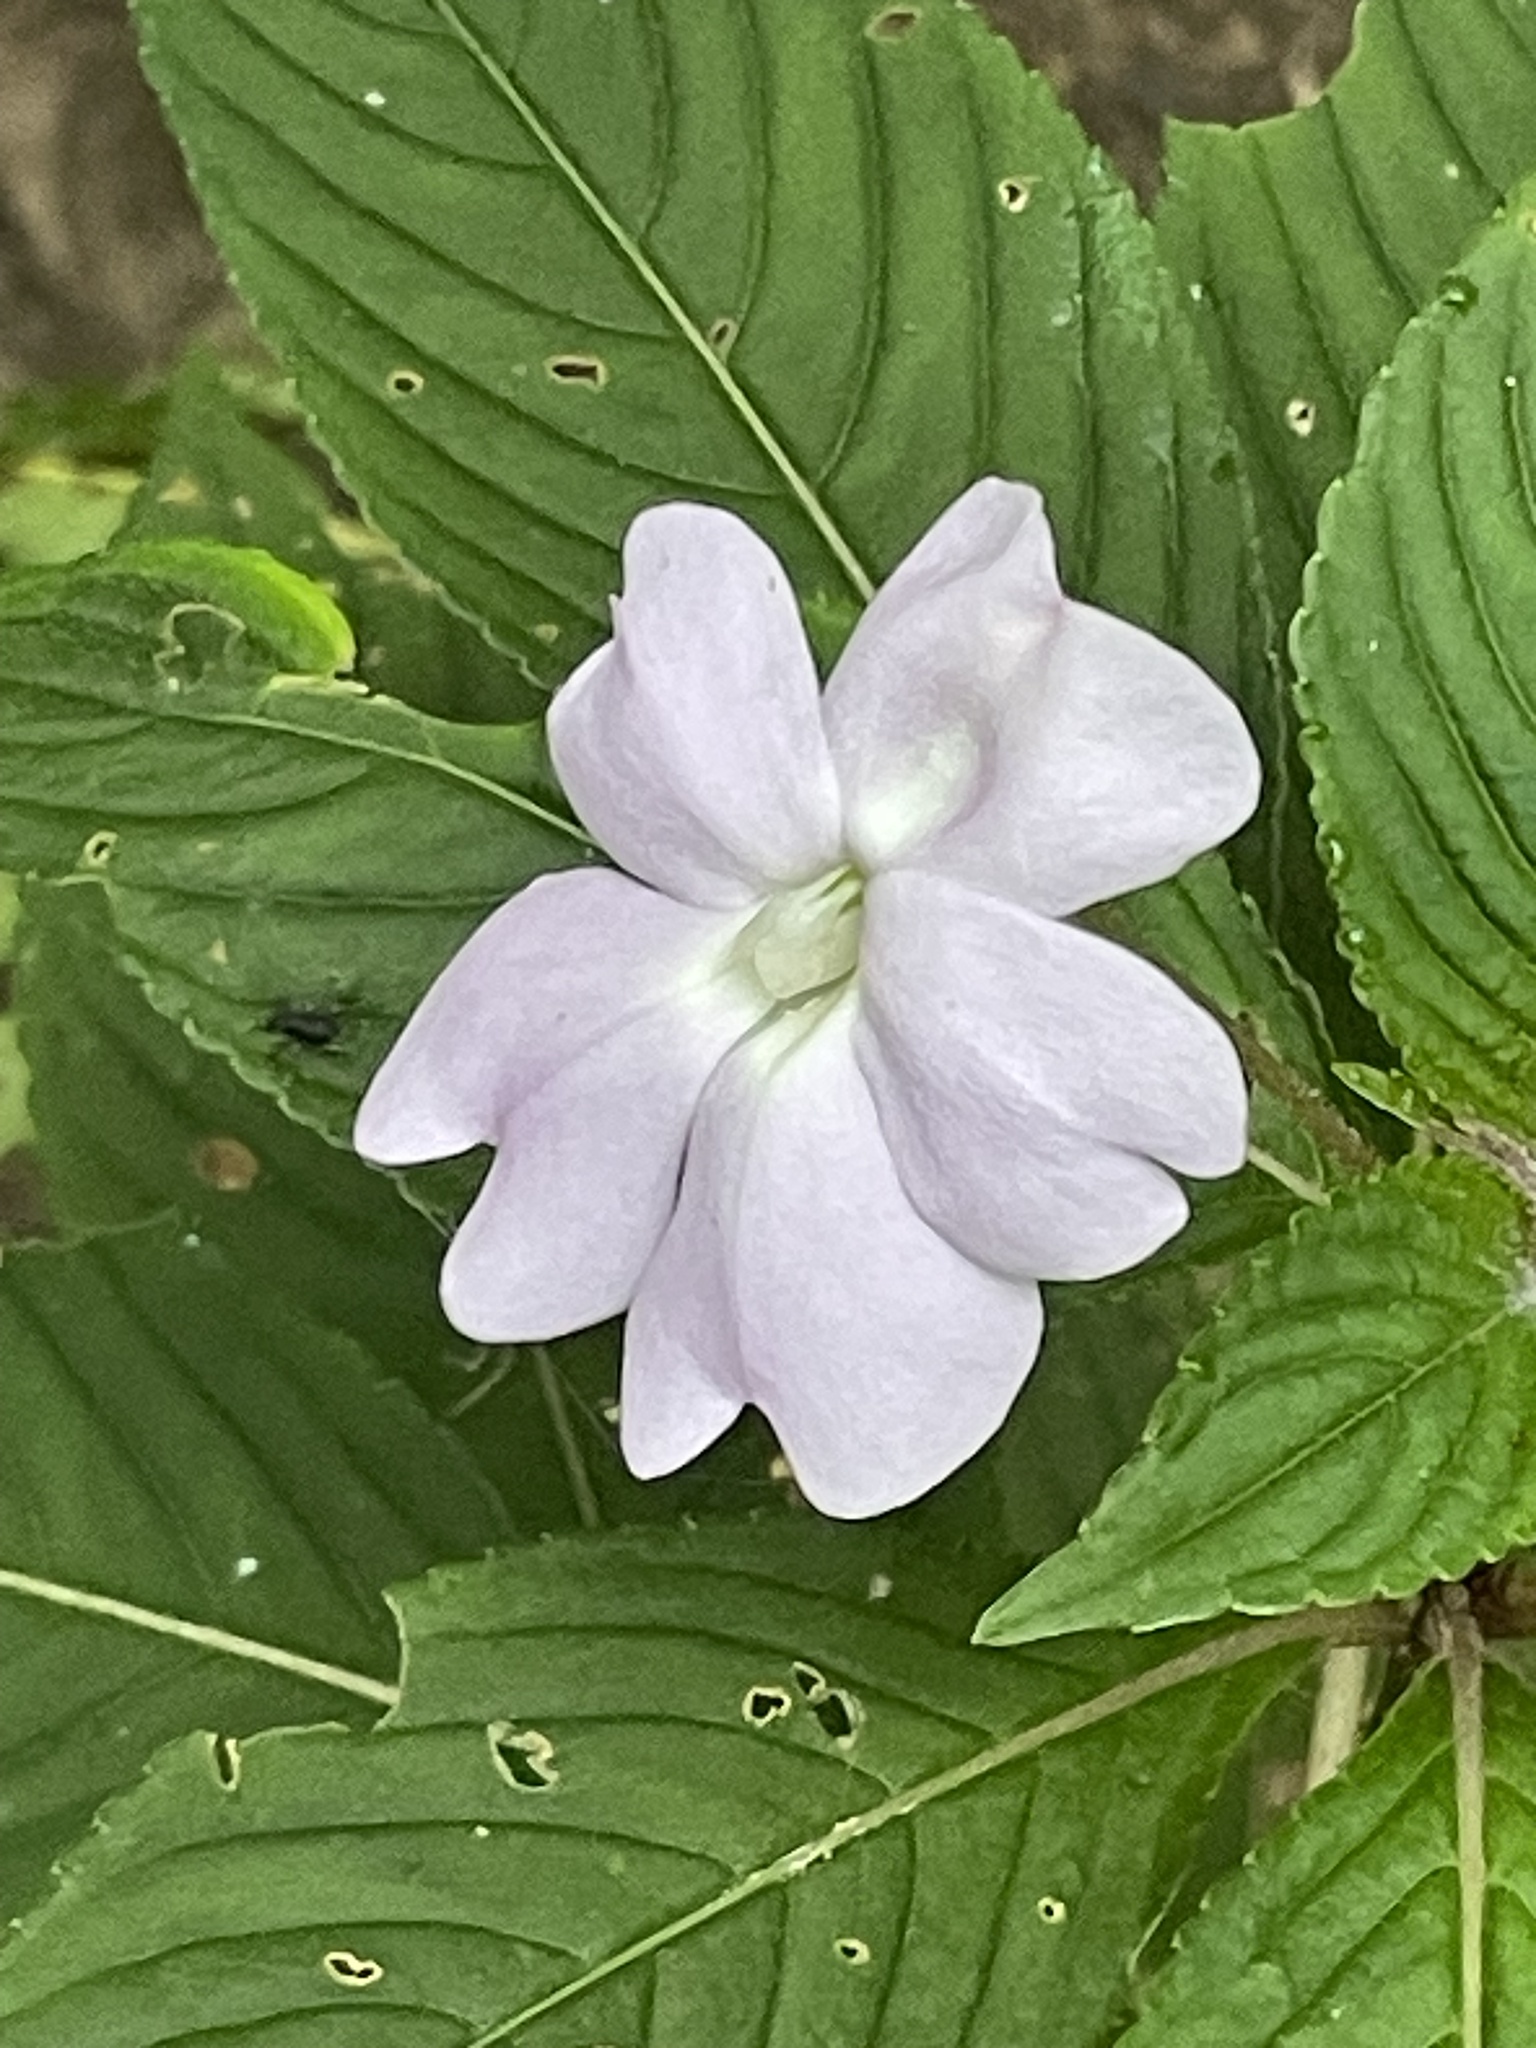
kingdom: Plantae
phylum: Tracheophyta
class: Magnoliopsida
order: Ericales
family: Balsaminaceae
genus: Impatiens
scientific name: Impatiens hawkeri
